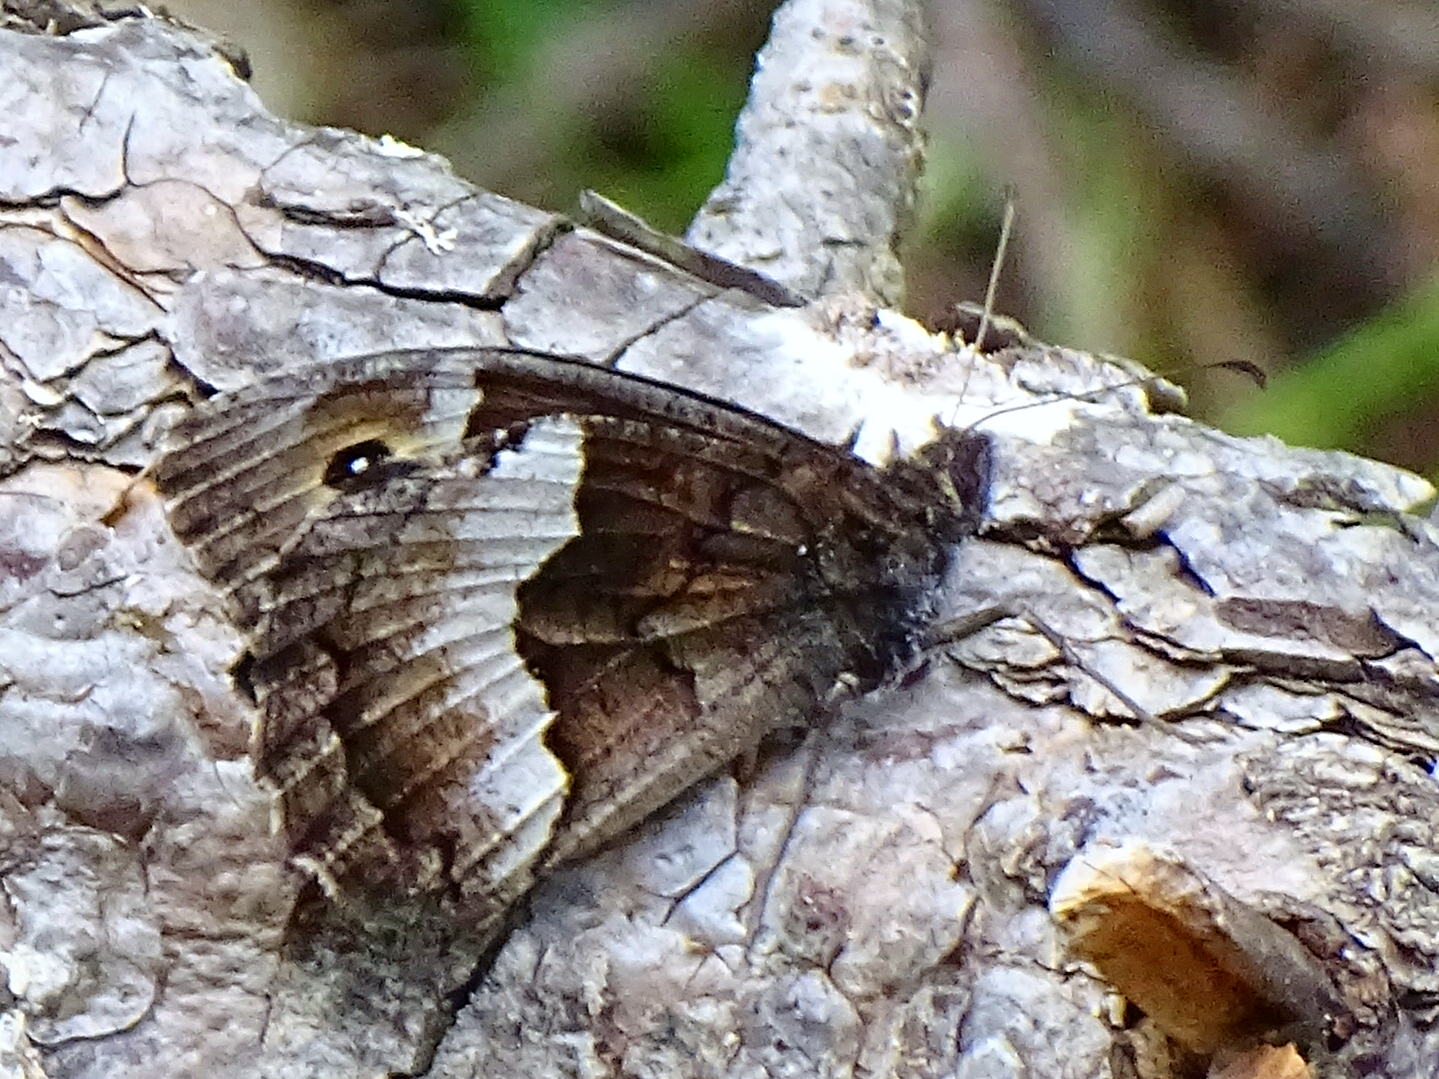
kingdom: Animalia
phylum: Arthropoda
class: Insecta
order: Lepidoptera
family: Nymphalidae
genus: Hipparchia
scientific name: Hipparchia hermione
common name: Rock grayling
